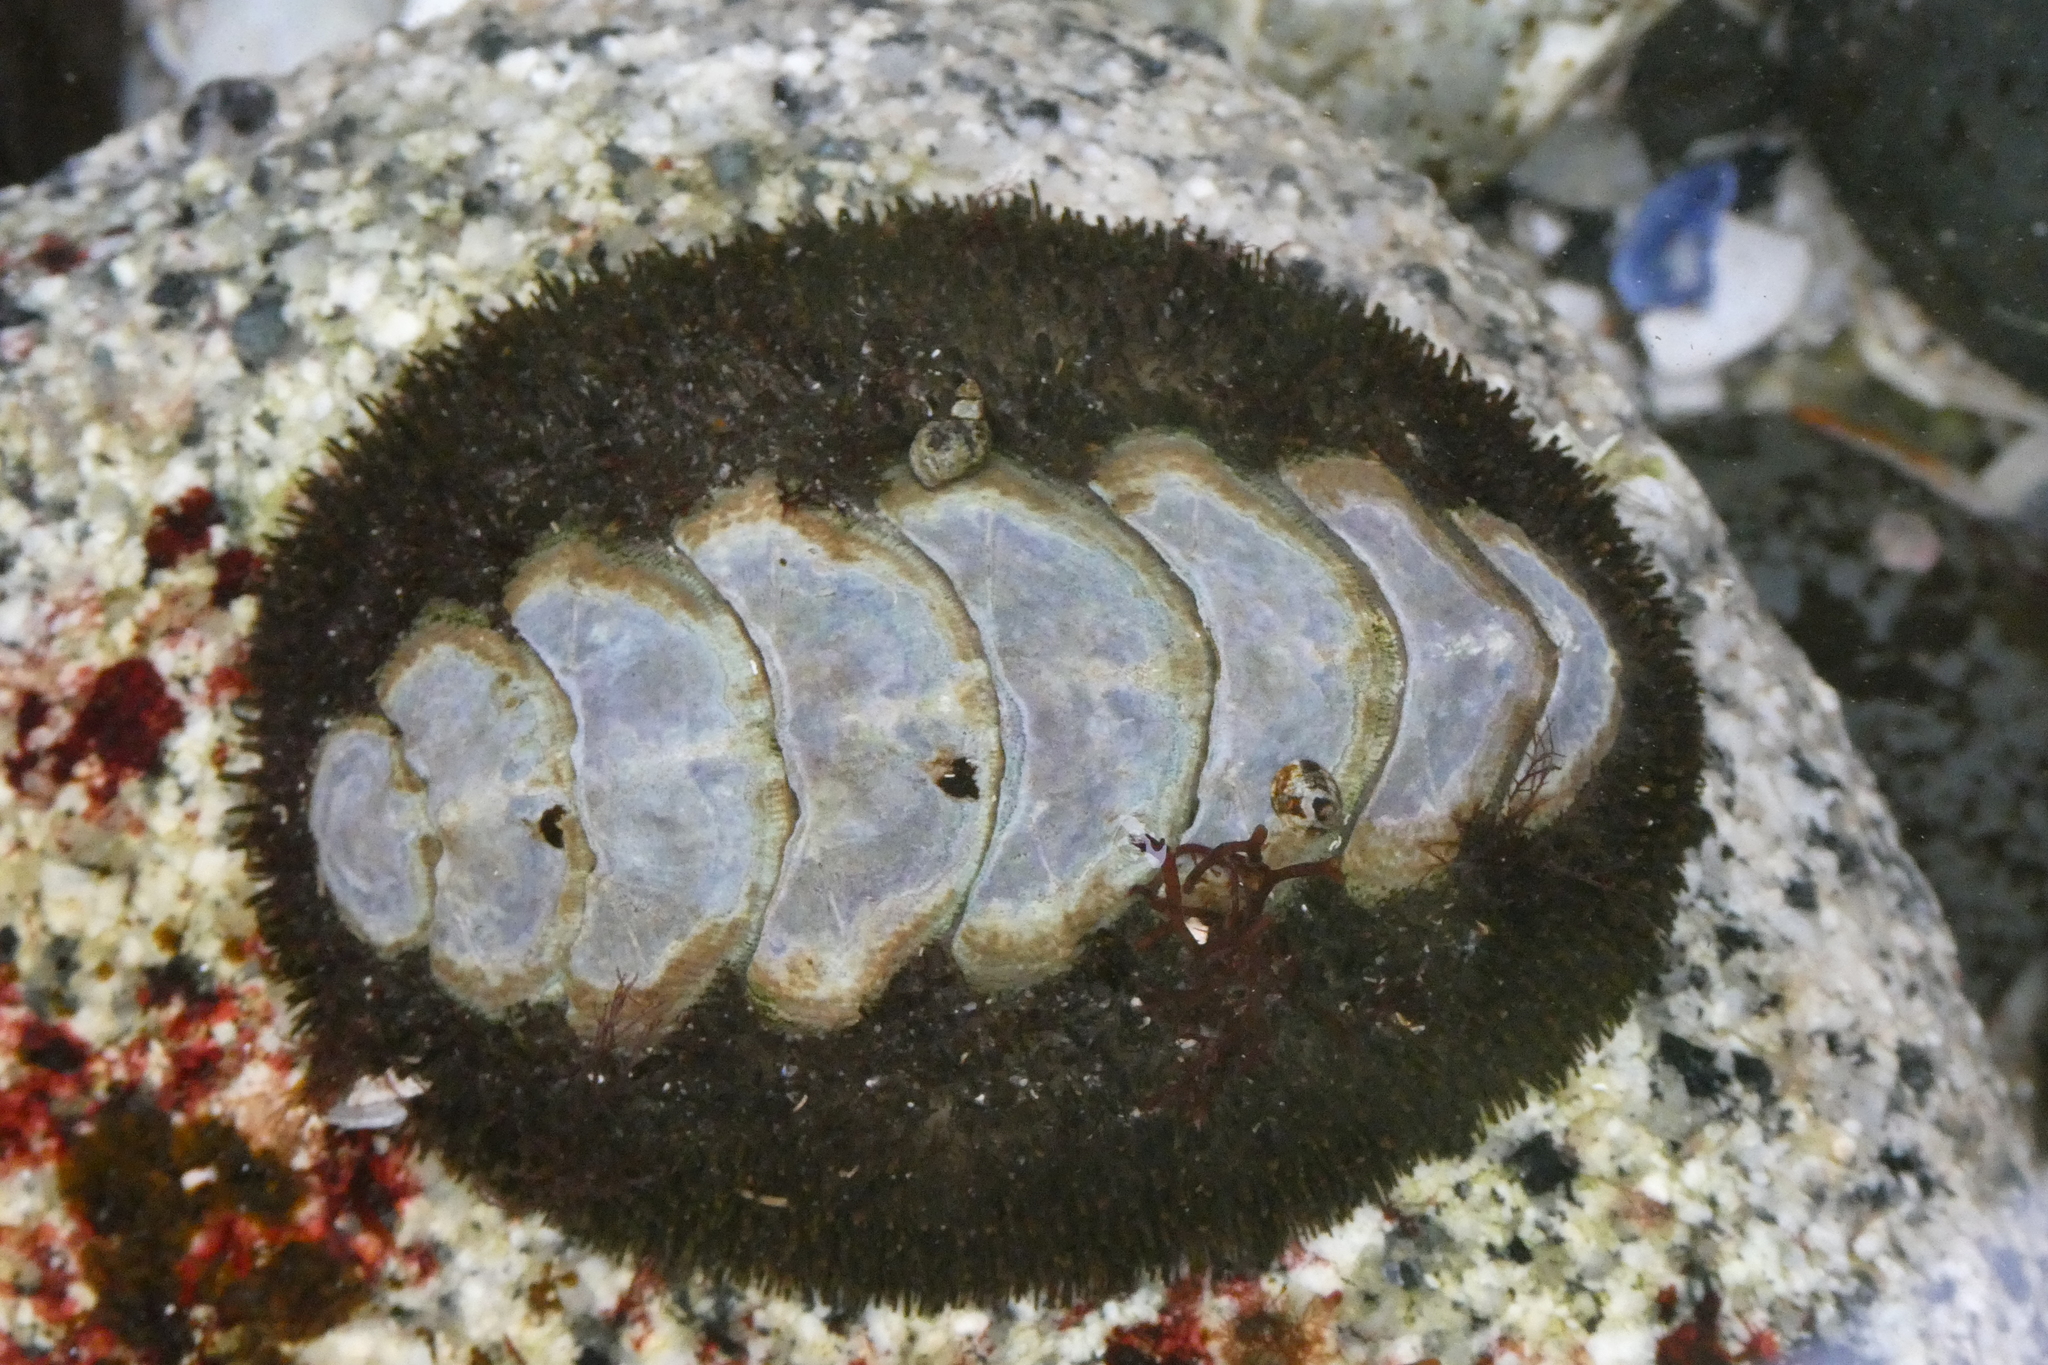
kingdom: Animalia
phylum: Mollusca
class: Polyplacophora
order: Chitonida
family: Mopaliidae
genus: Mopalia
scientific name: Mopalia muscosa
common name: Mossy chiton
